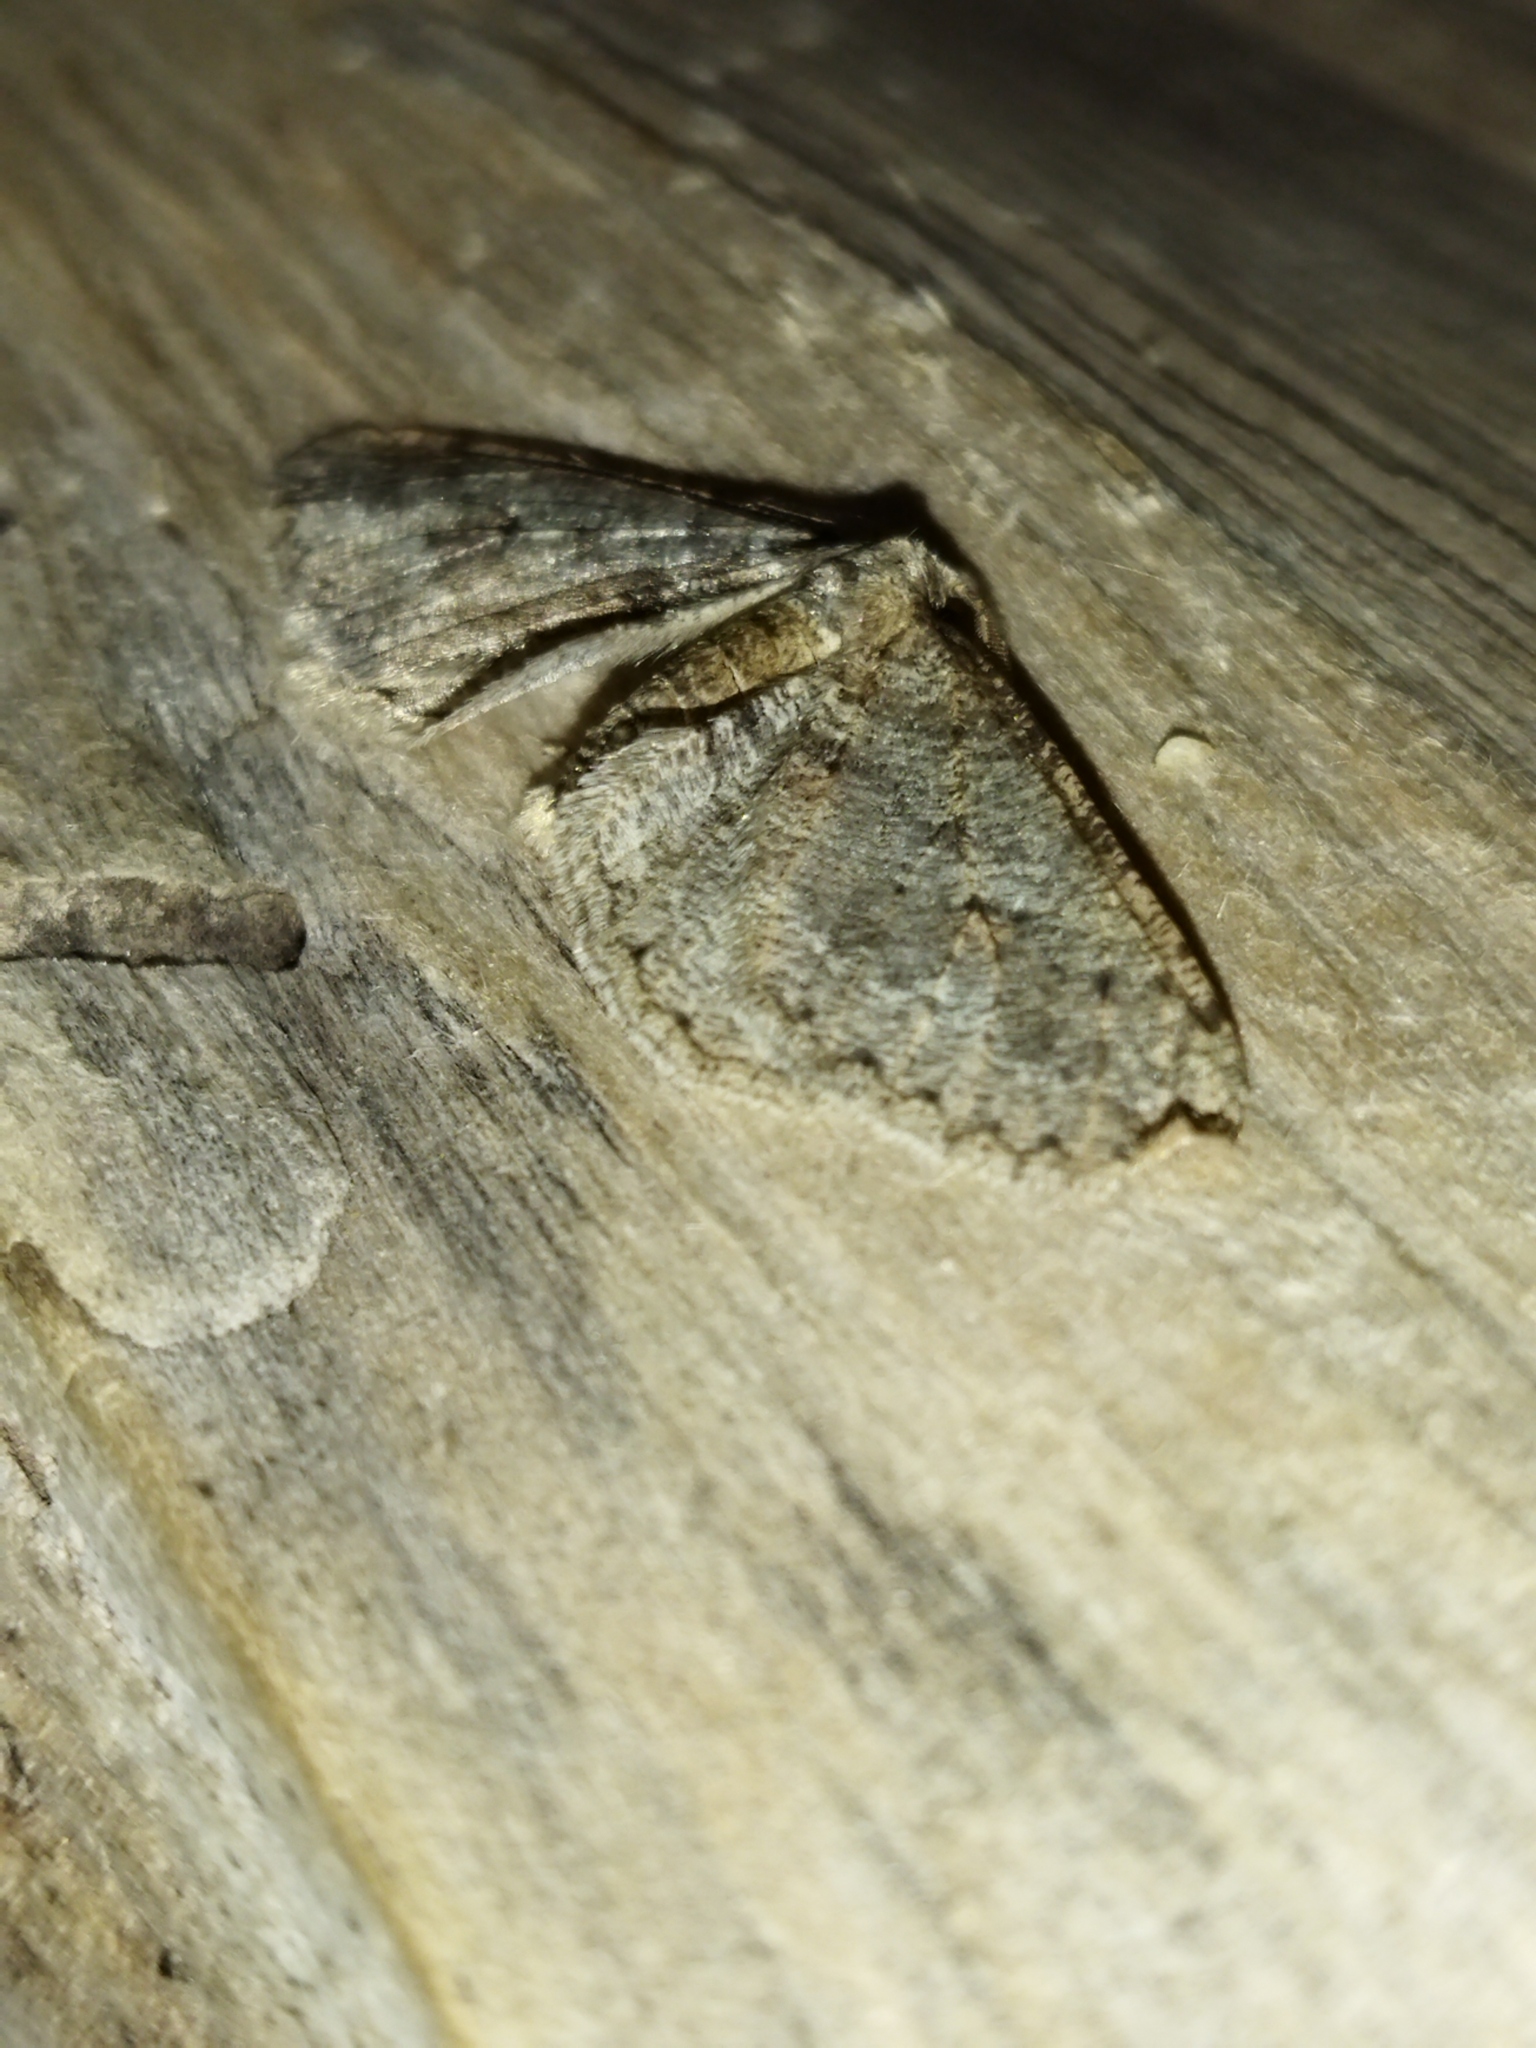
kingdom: Animalia
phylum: Arthropoda
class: Insecta
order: Lepidoptera
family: Geometridae
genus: Agriopis
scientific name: Agriopis bajaria
